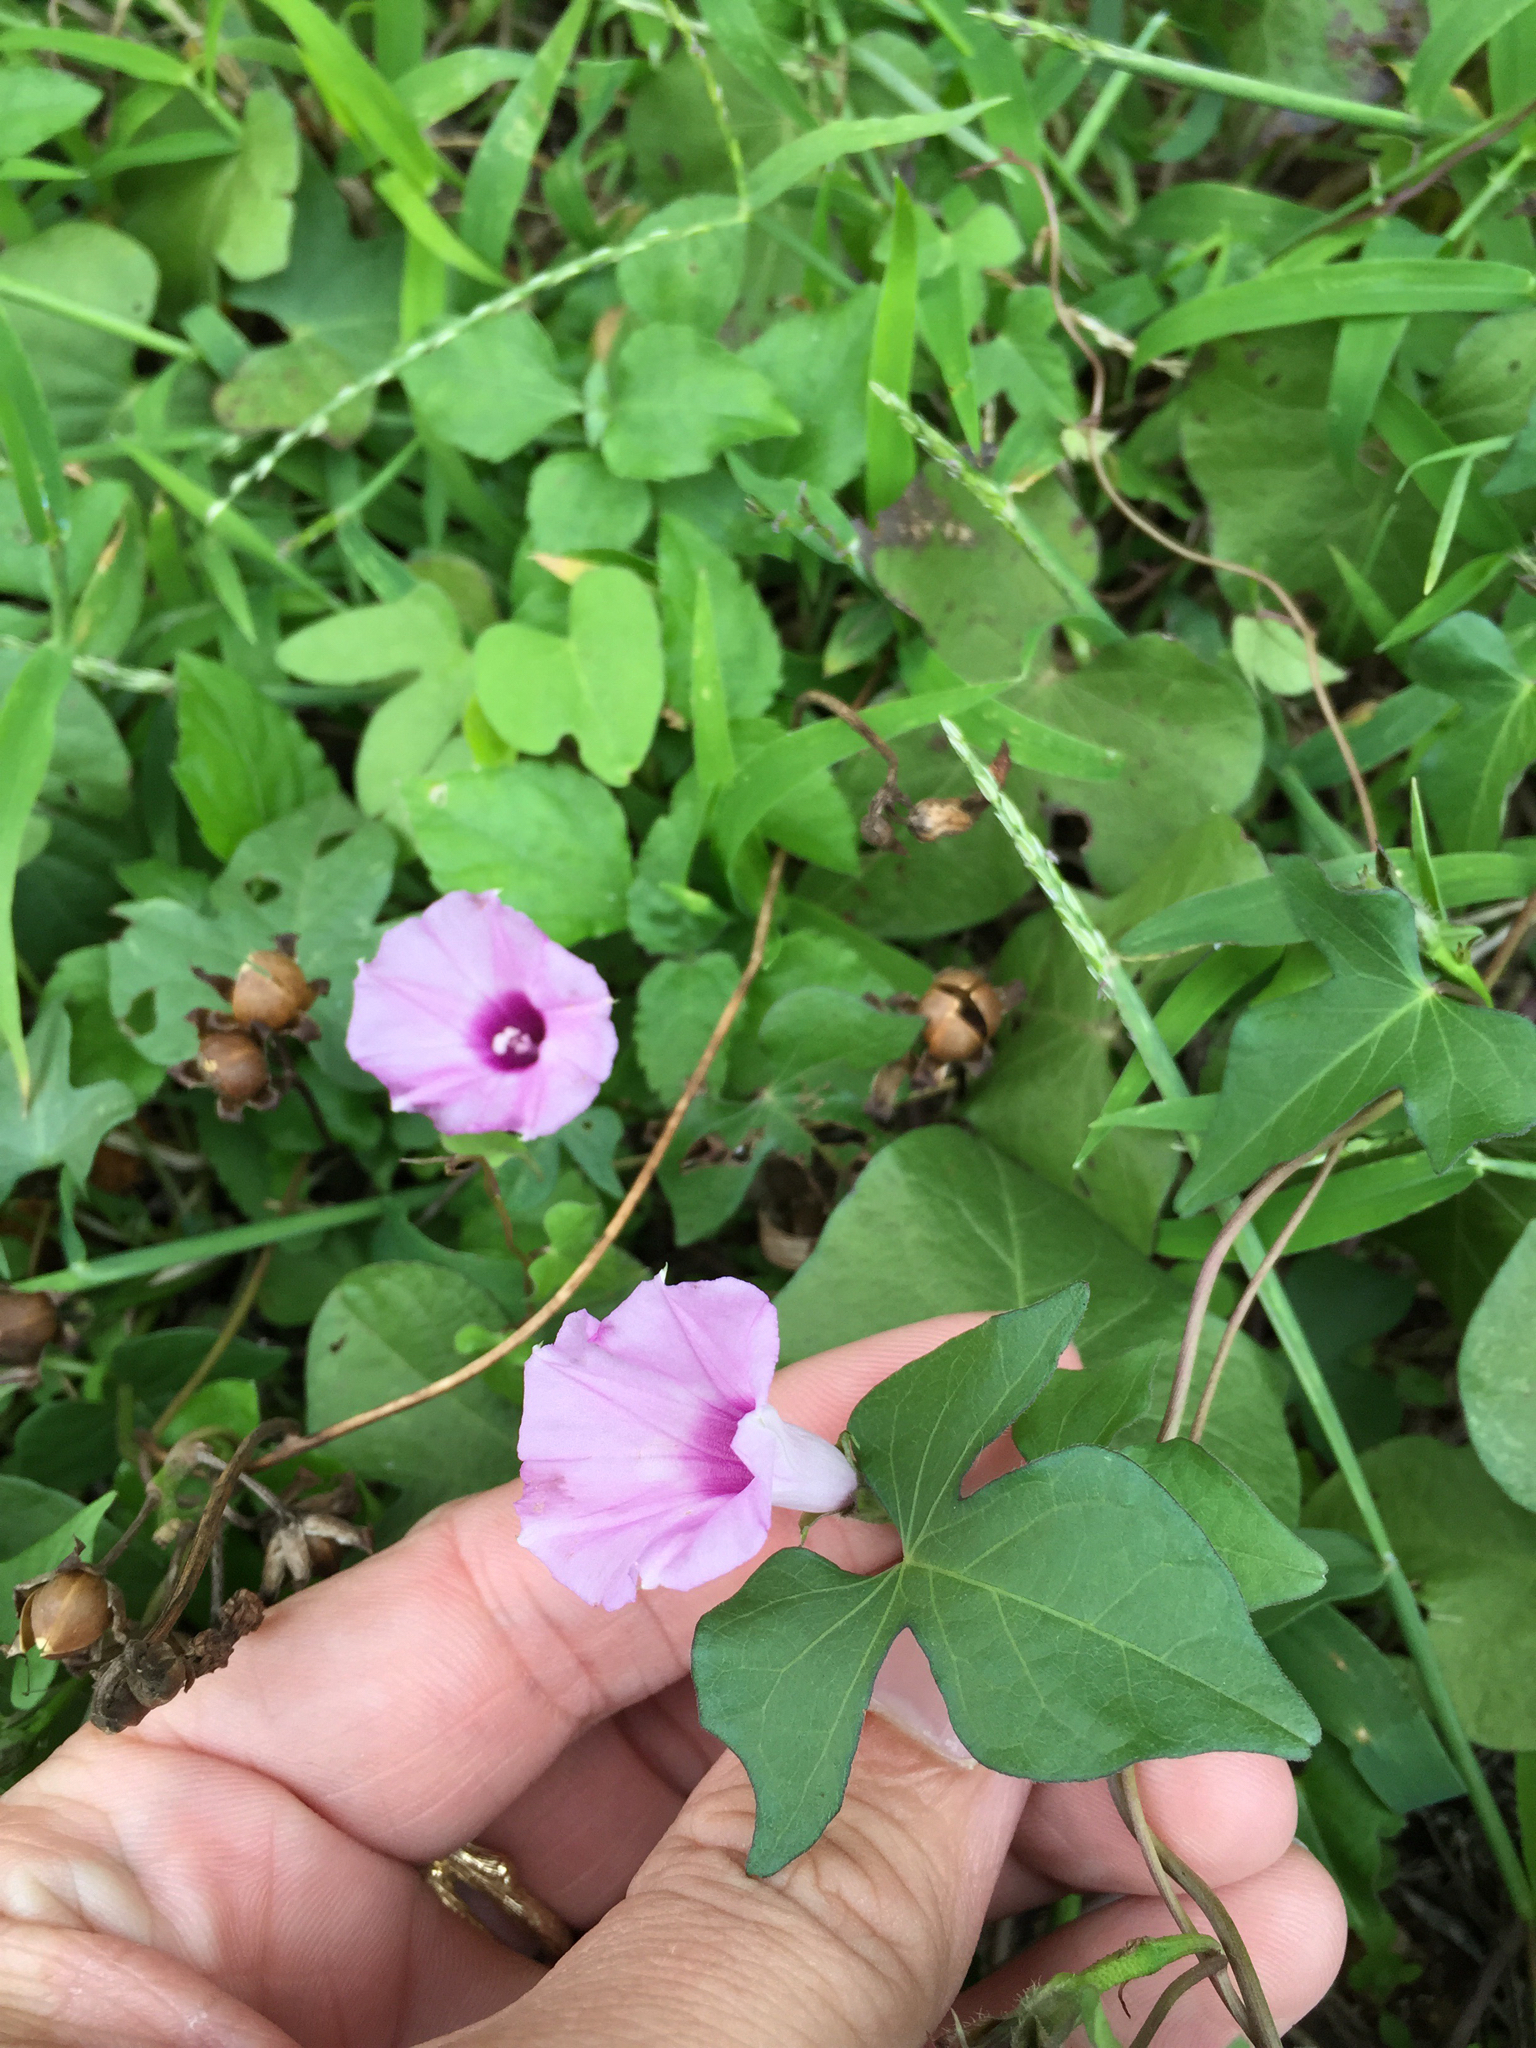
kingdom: Plantae
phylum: Tracheophyta
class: Magnoliopsida
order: Solanales
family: Convolvulaceae
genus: Ipomoea
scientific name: Ipomoea cordatotriloba
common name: Cotton morning glory
